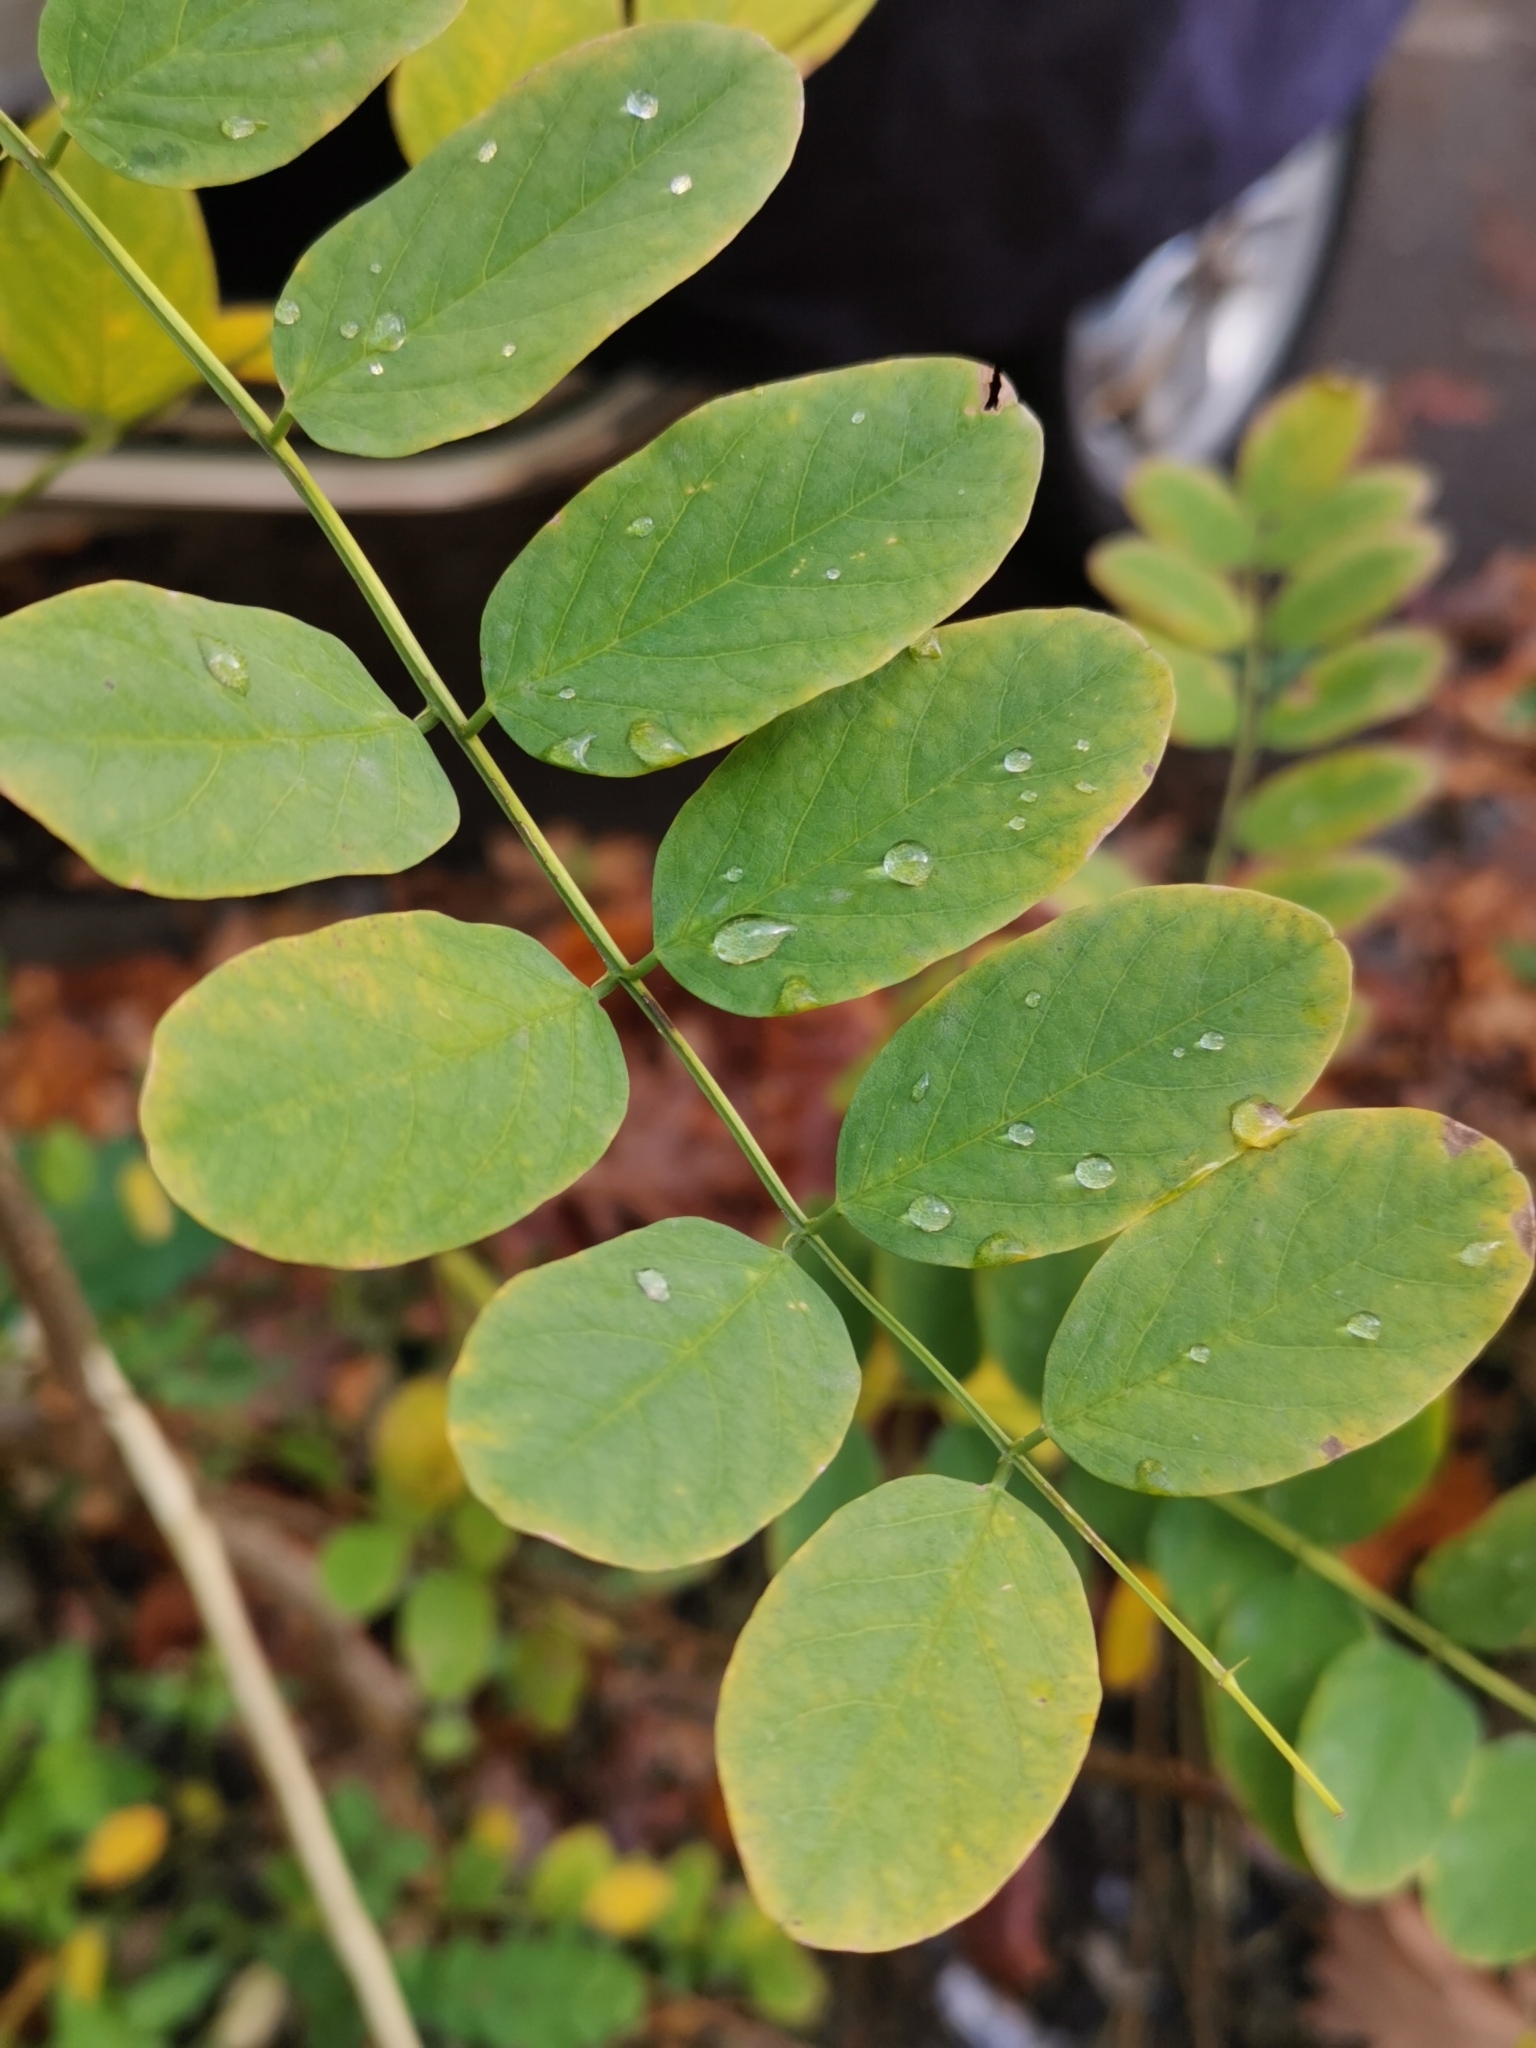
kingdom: Plantae
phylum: Tracheophyta
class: Magnoliopsida
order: Fabales
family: Fabaceae
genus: Robinia
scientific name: Robinia pseudoacacia
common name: Black locust
